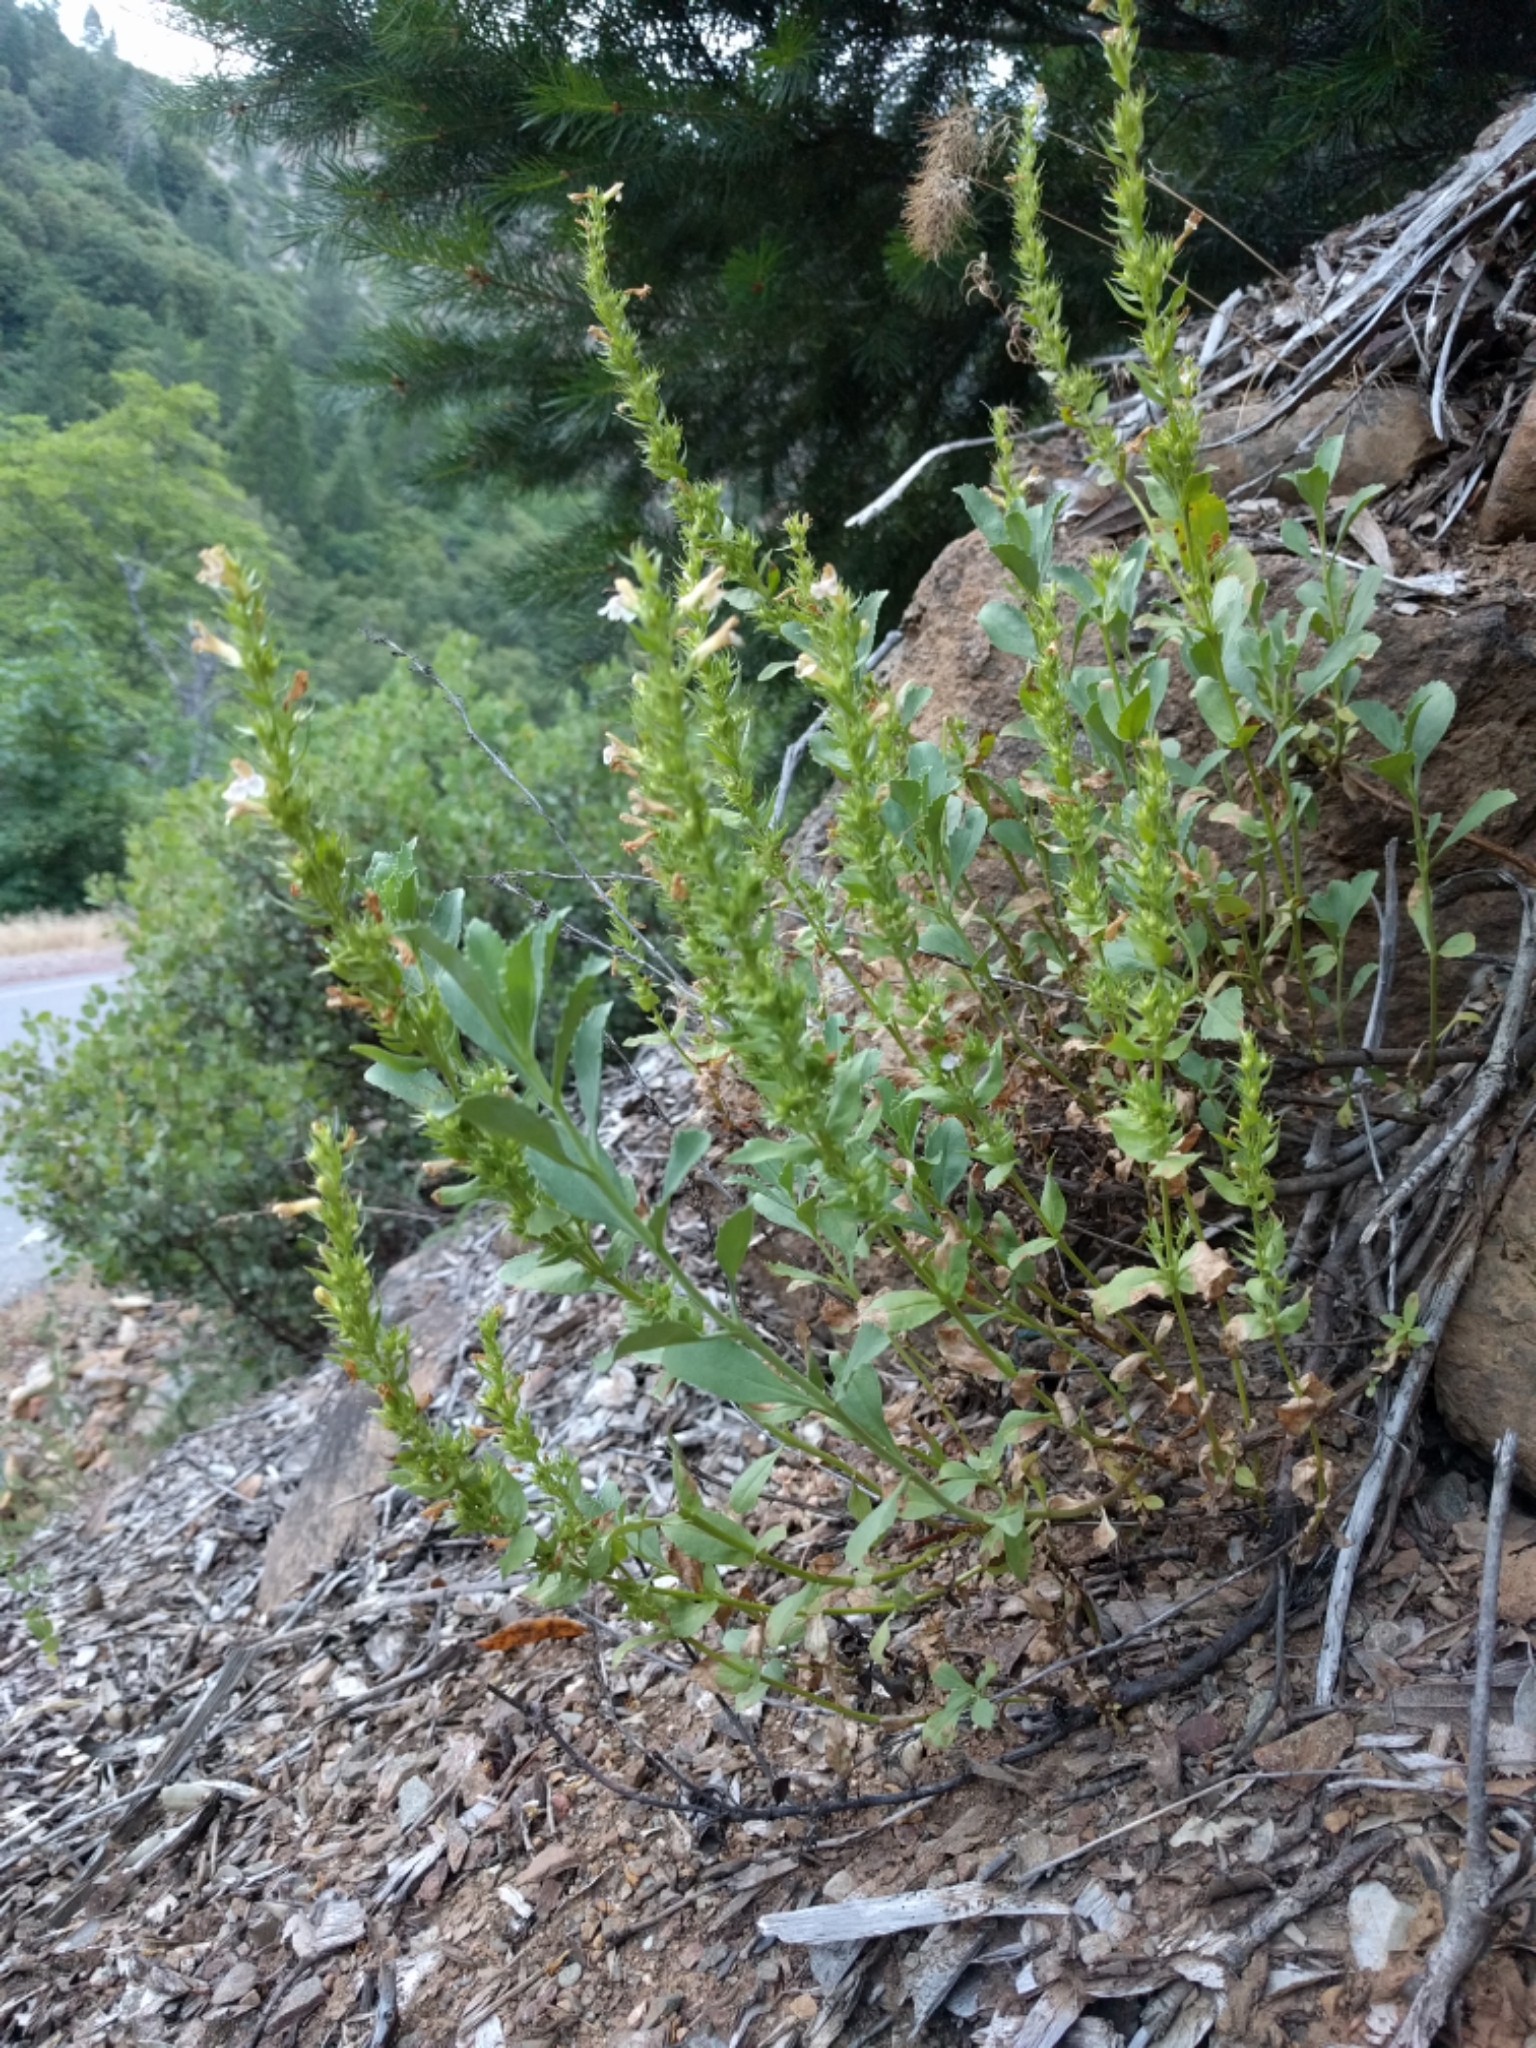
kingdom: Plantae
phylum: Tracheophyta
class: Magnoliopsida
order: Lamiales
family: Plantaginaceae
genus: Penstemon
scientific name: Penstemon deustus
